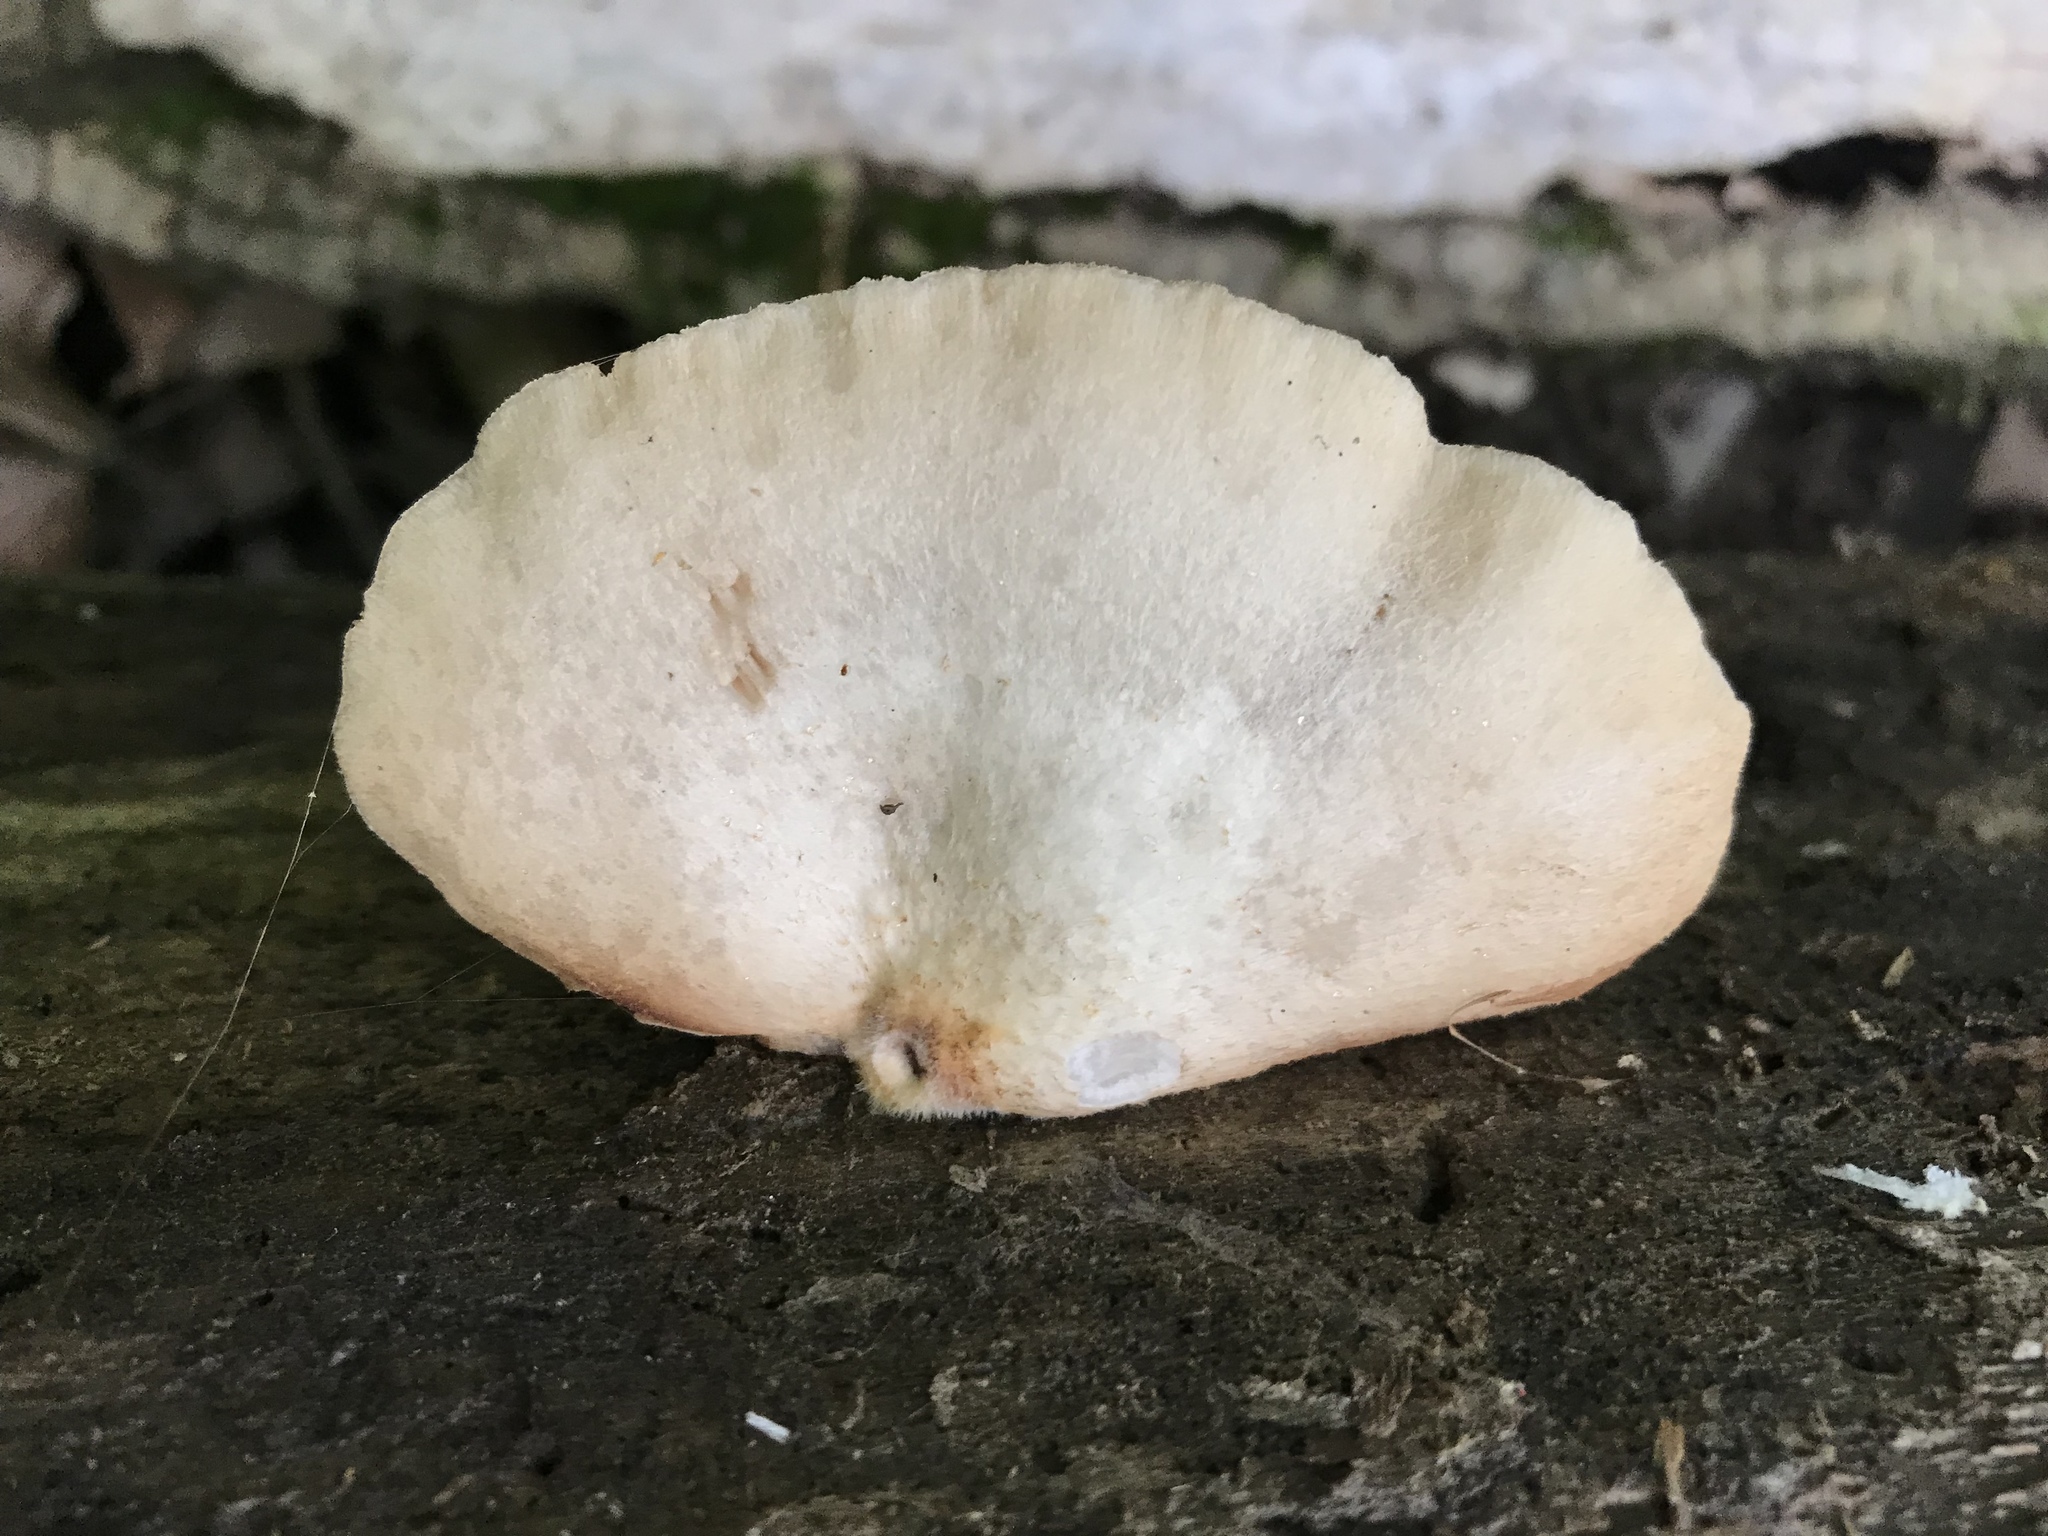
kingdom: Fungi
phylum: Basidiomycota
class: Agaricomycetes
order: Agaricales
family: Crepidotaceae
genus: Crepidotus
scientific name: Crepidotus crocophyllus
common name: Saffron oysterling
